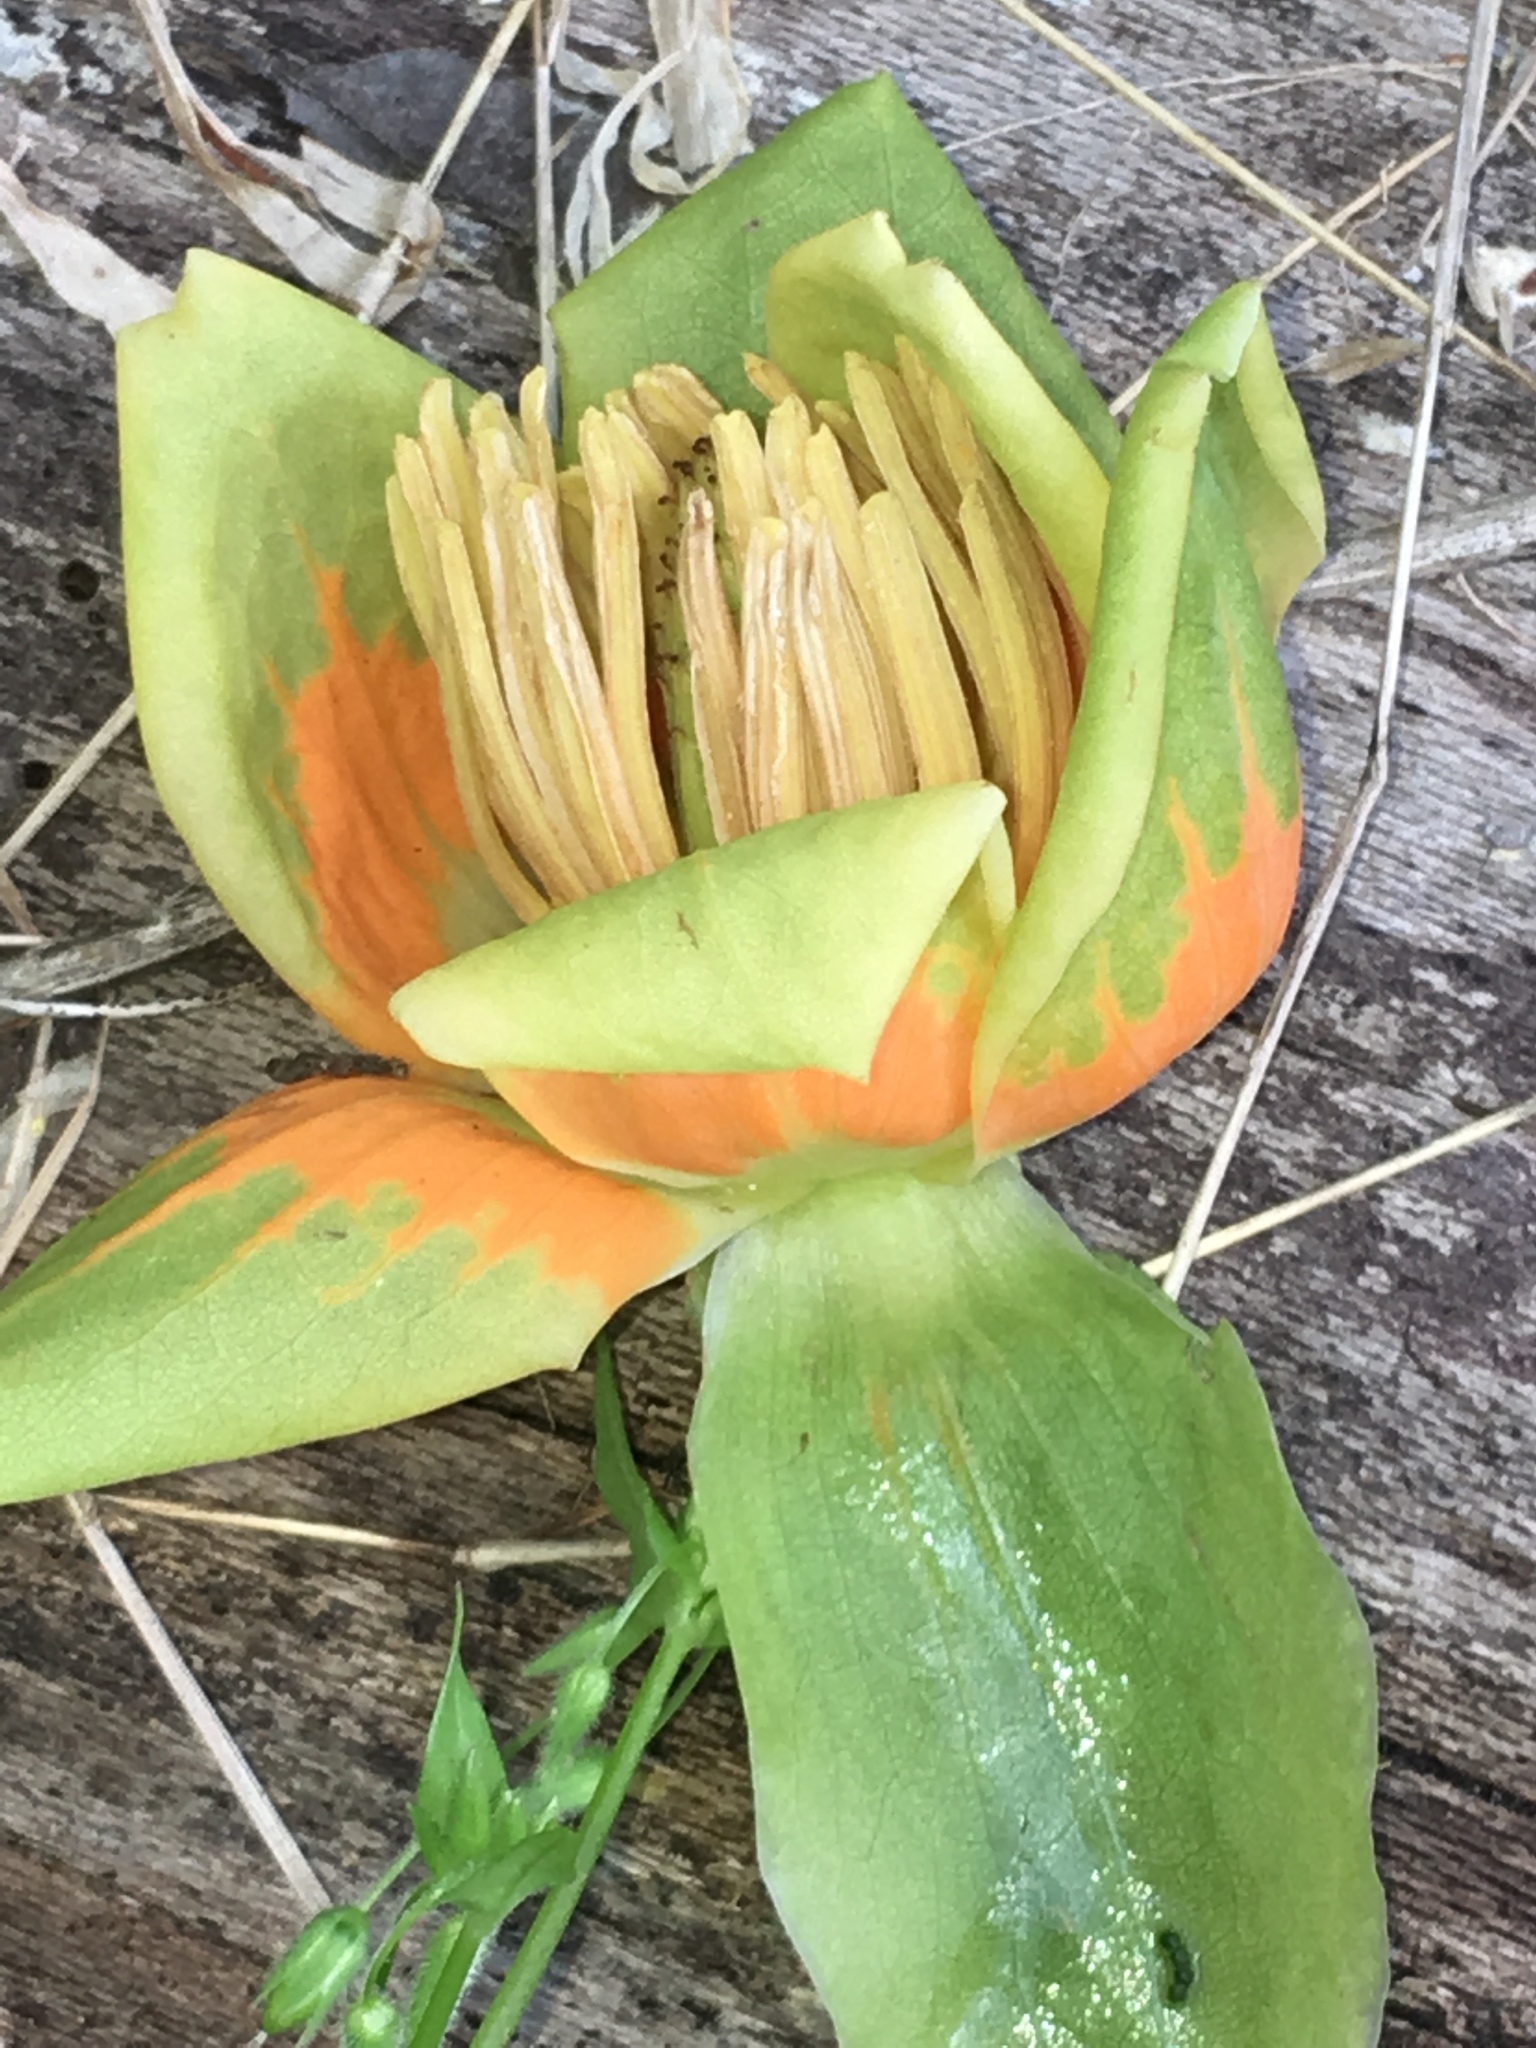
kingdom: Plantae
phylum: Tracheophyta
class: Magnoliopsida
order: Magnoliales
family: Magnoliaceae
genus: Liriodendron
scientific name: Liriodendron tulipifera
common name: Tulip tree
